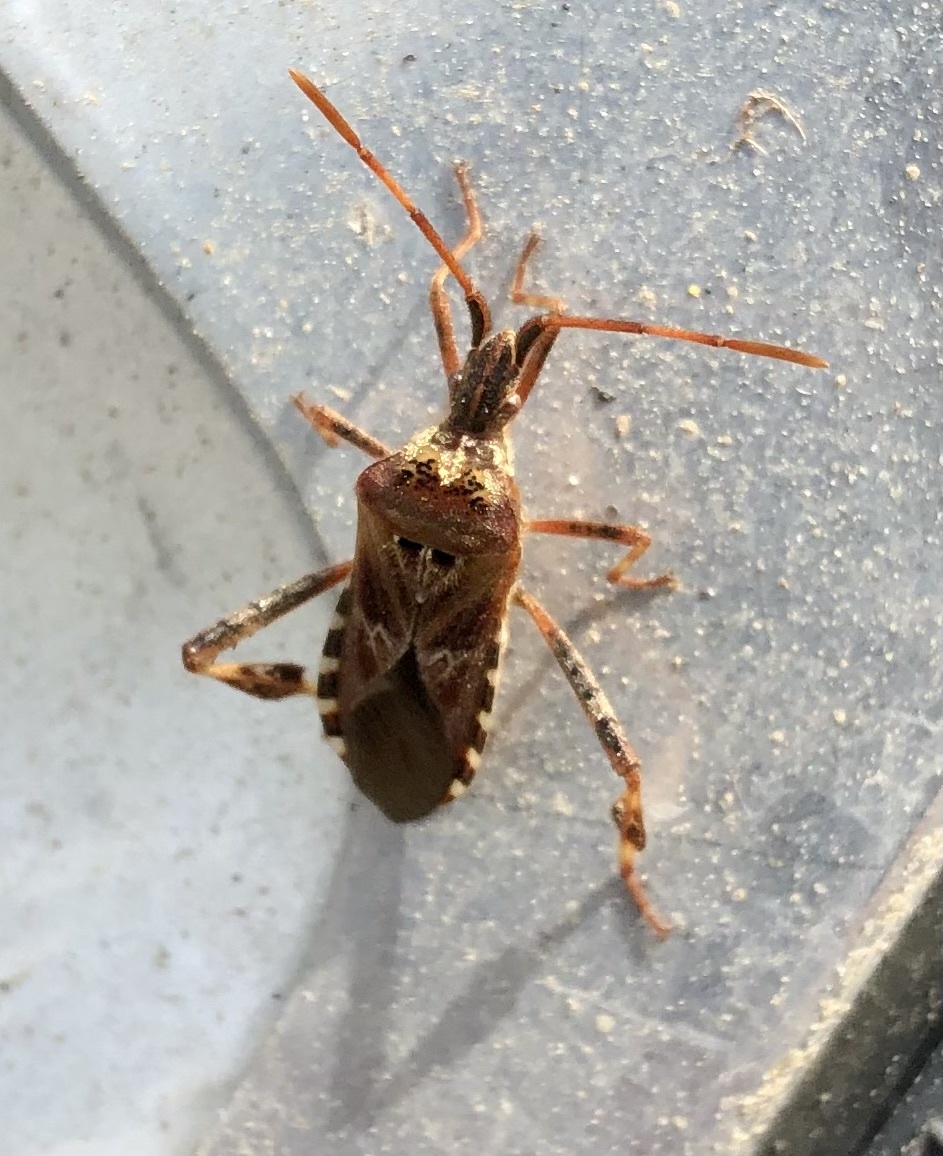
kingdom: Animalia
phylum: Arthropoda
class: Insecta
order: Hemiptera
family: Coreidae
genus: Leptoglossus
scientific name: Leptoglossus occidentalis
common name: Western conifer-seed bug
